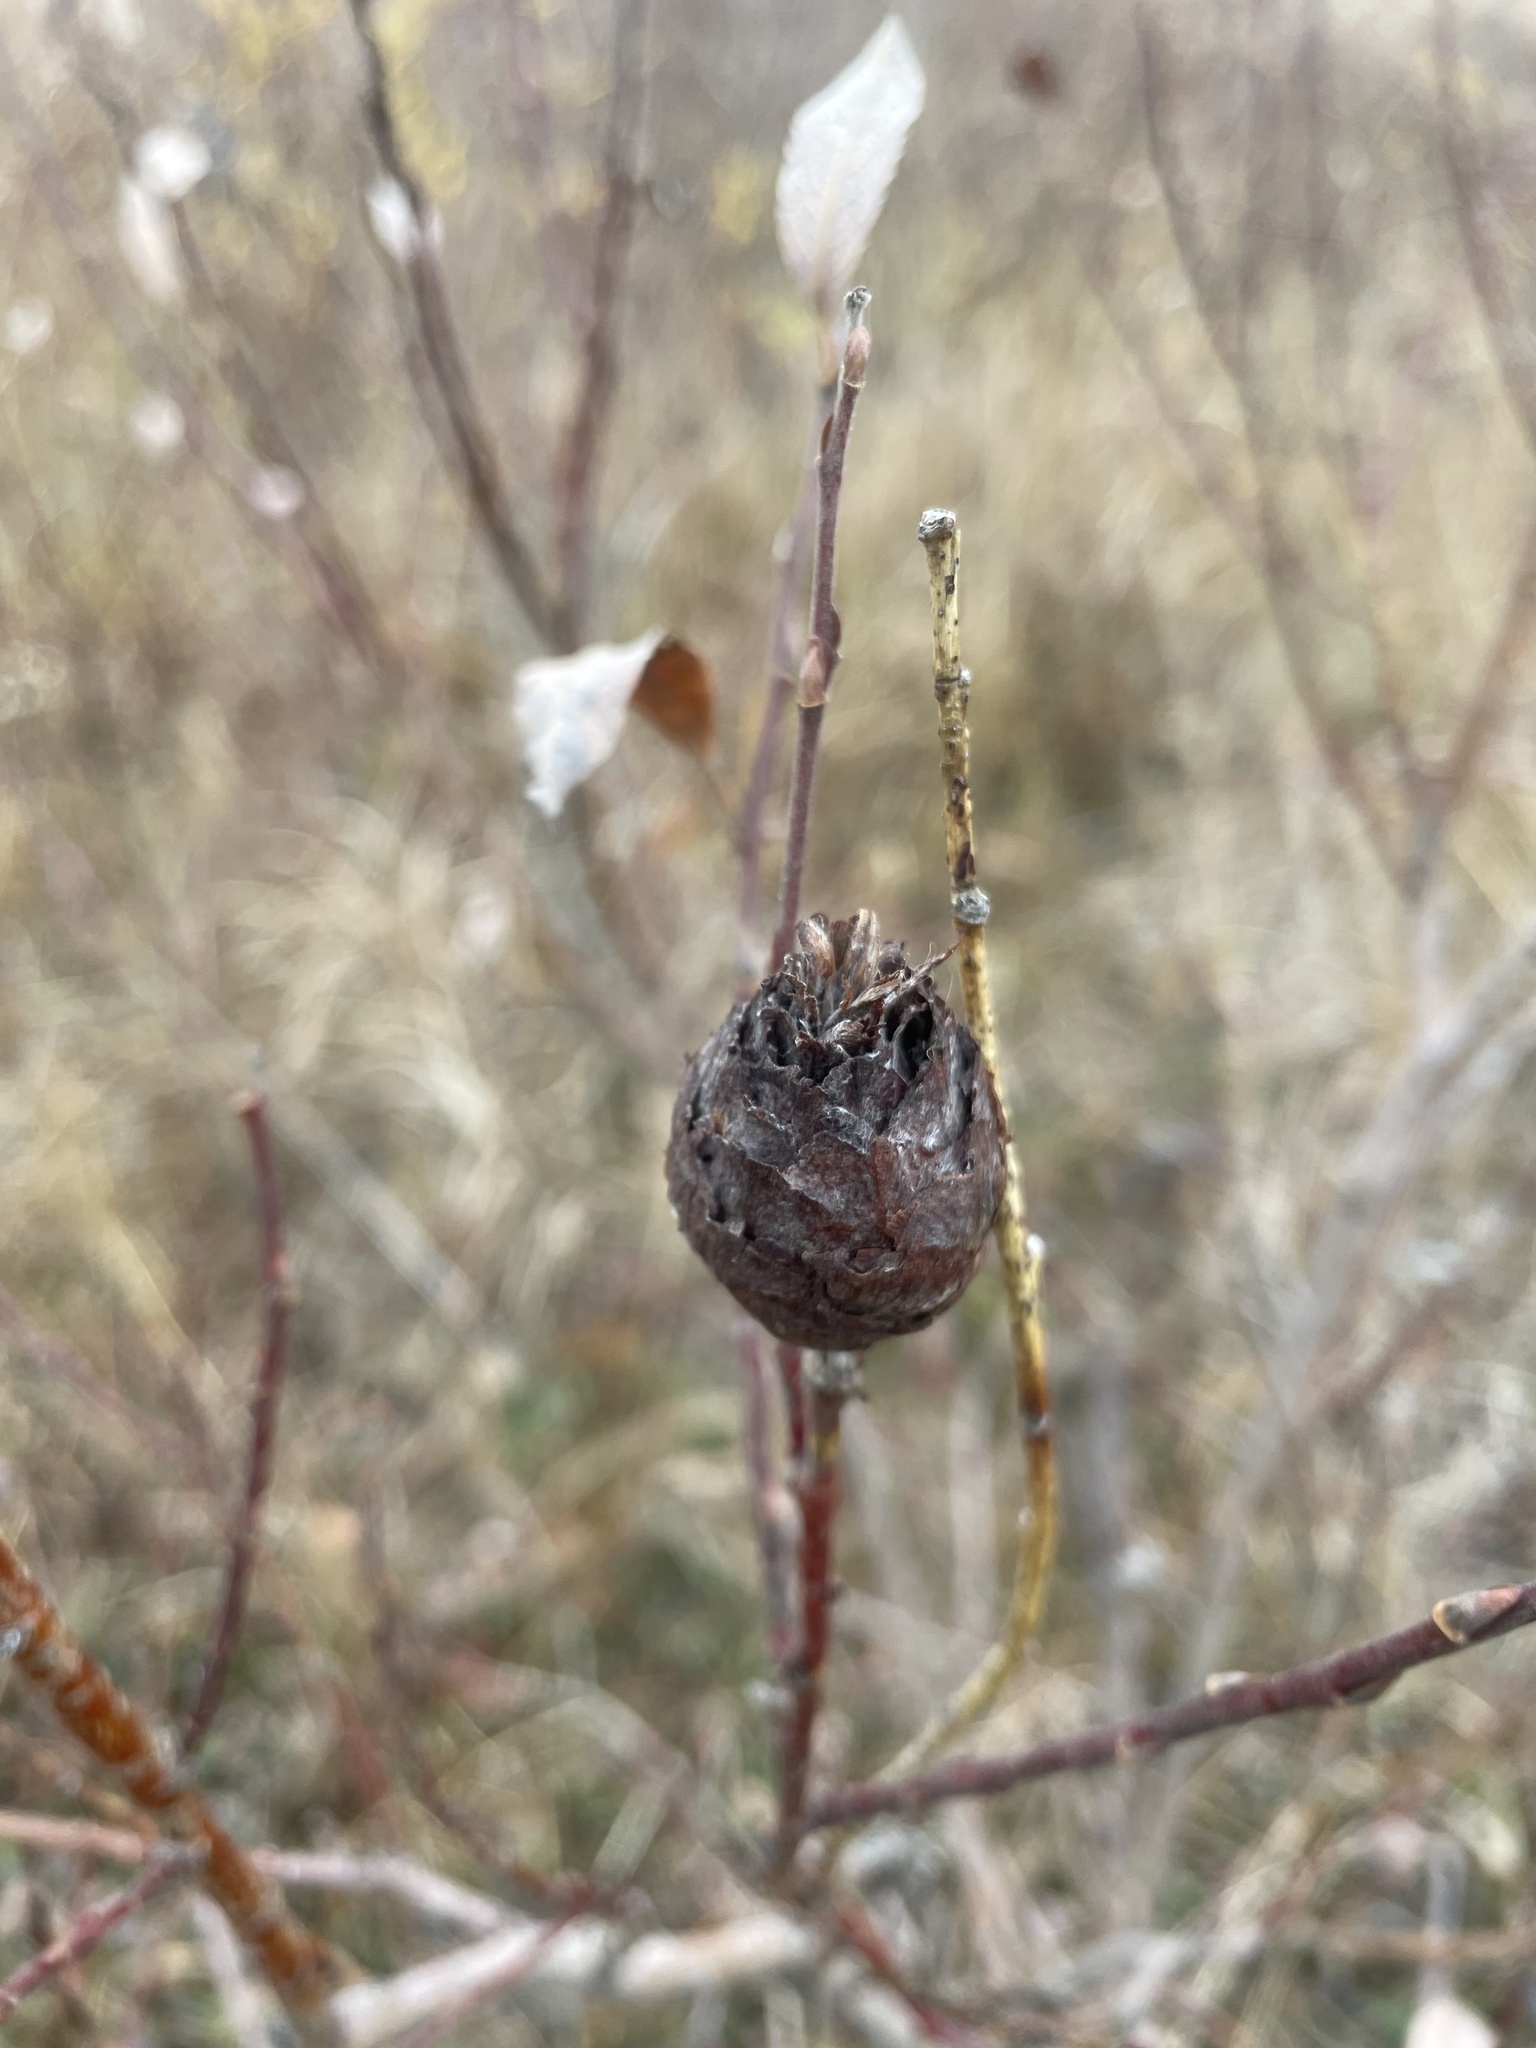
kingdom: Animalia
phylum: Arthropoda
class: Insecta
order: Diptera
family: Cecidomyiidae
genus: Rabdophaga
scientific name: Rabdophaga strobiloides
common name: Willow pinecone gall midge
